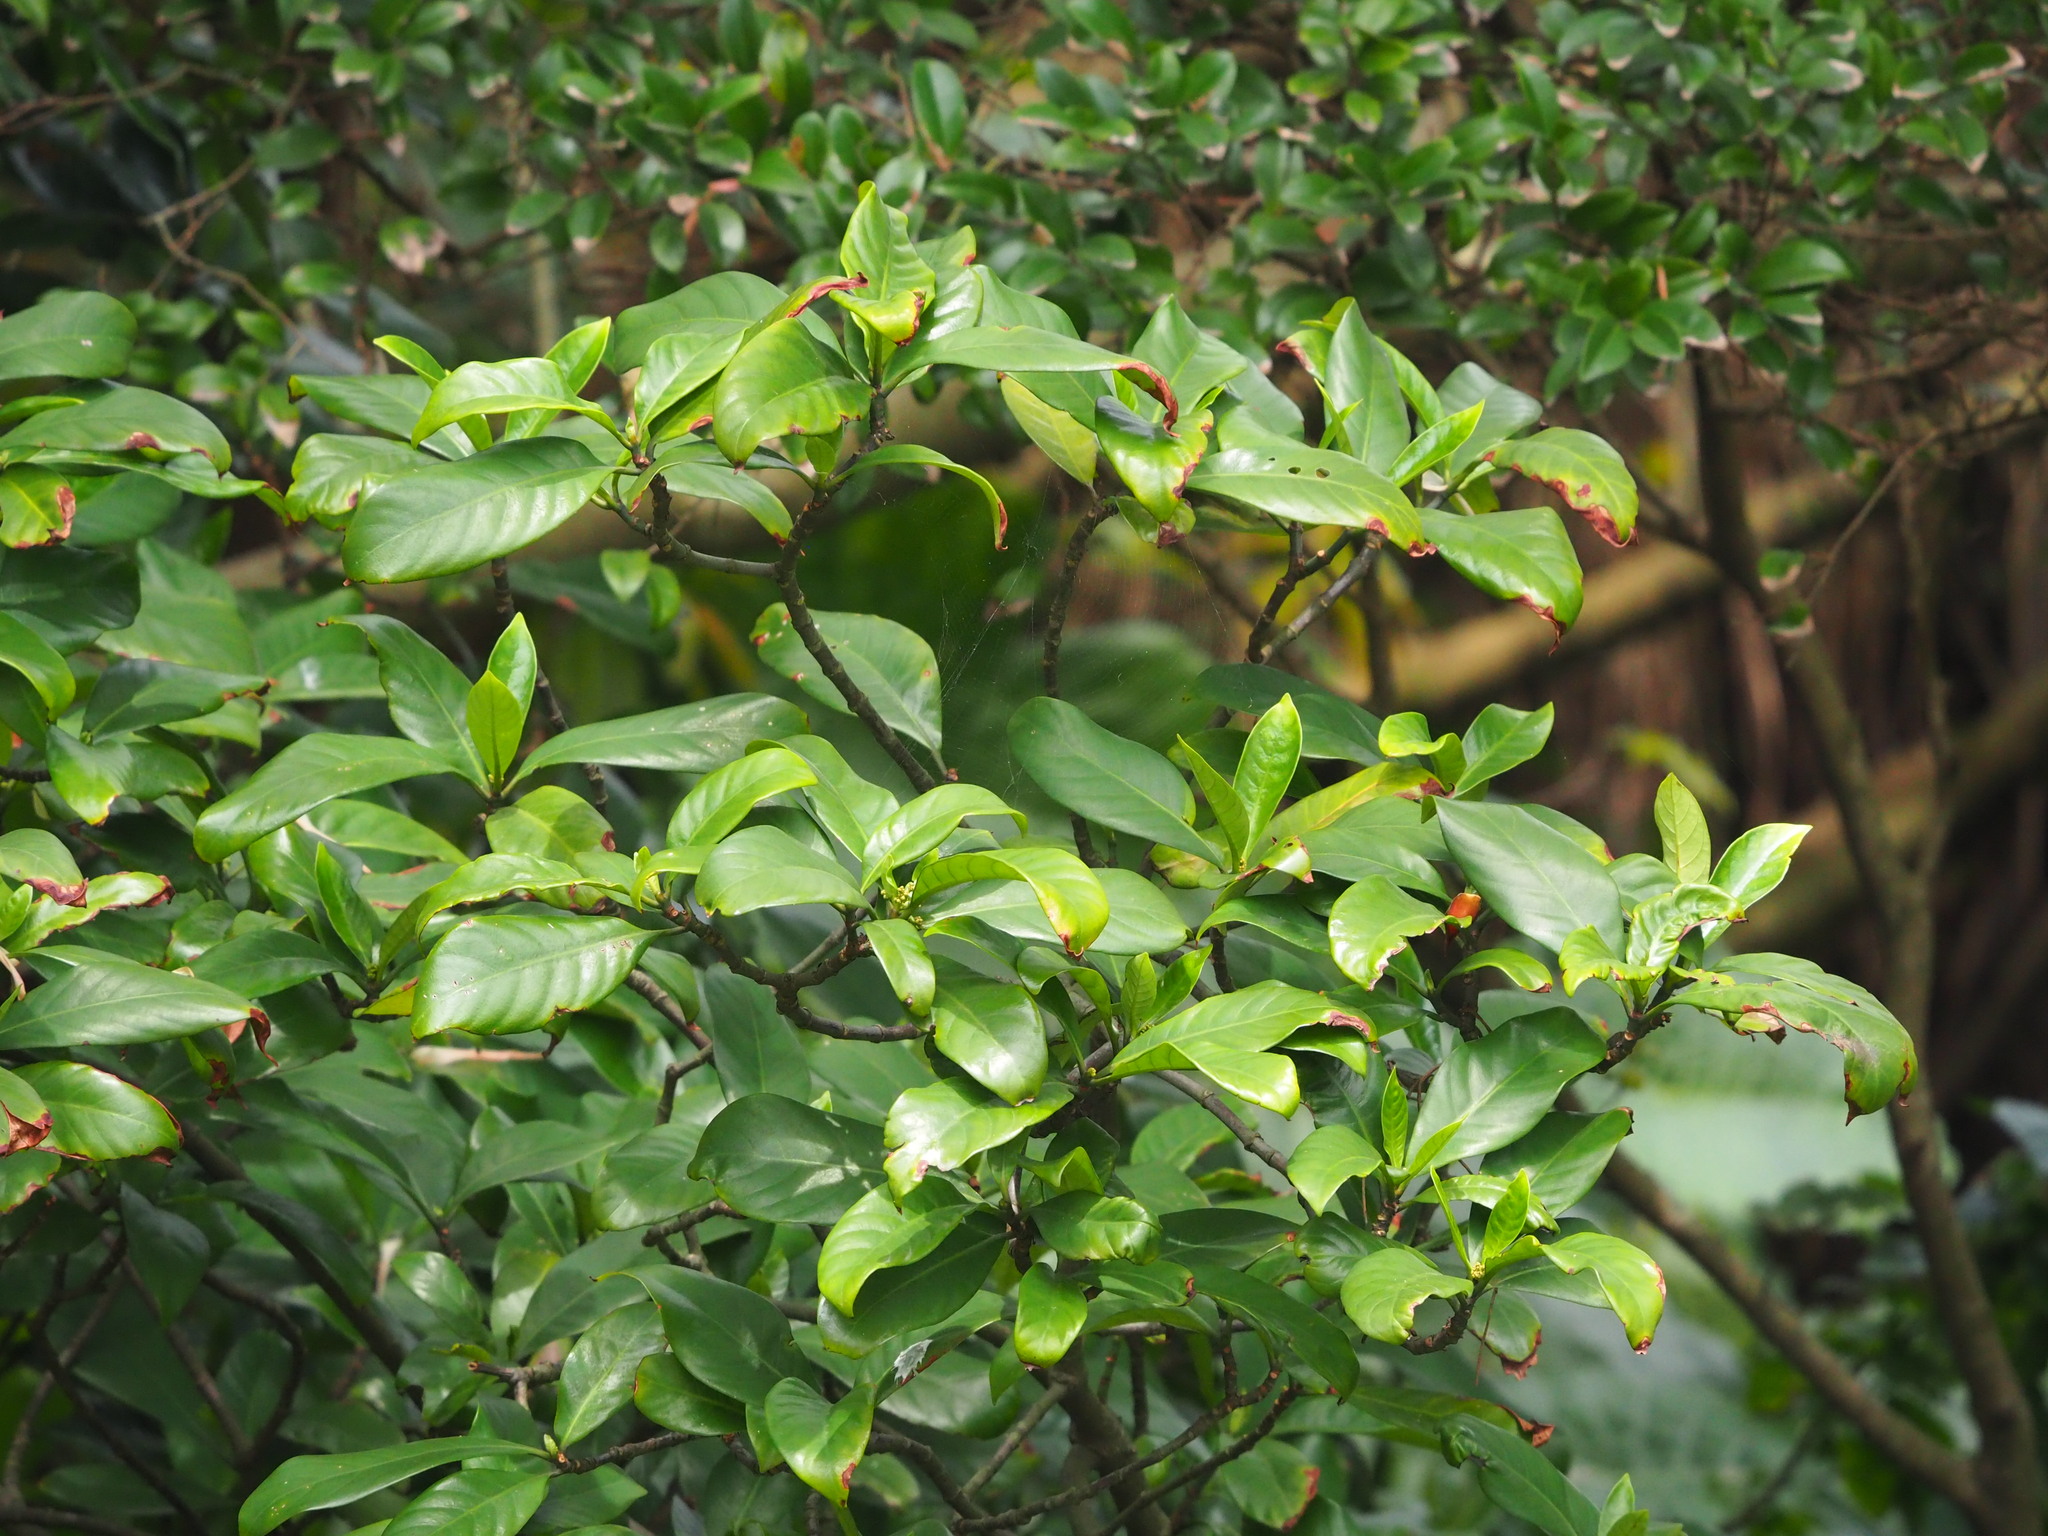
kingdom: Plantae
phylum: Tracheophyta
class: Magnoliopsida
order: Gentianales
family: Rubiaceae
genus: Psychotria
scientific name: Psychotria asiatica
